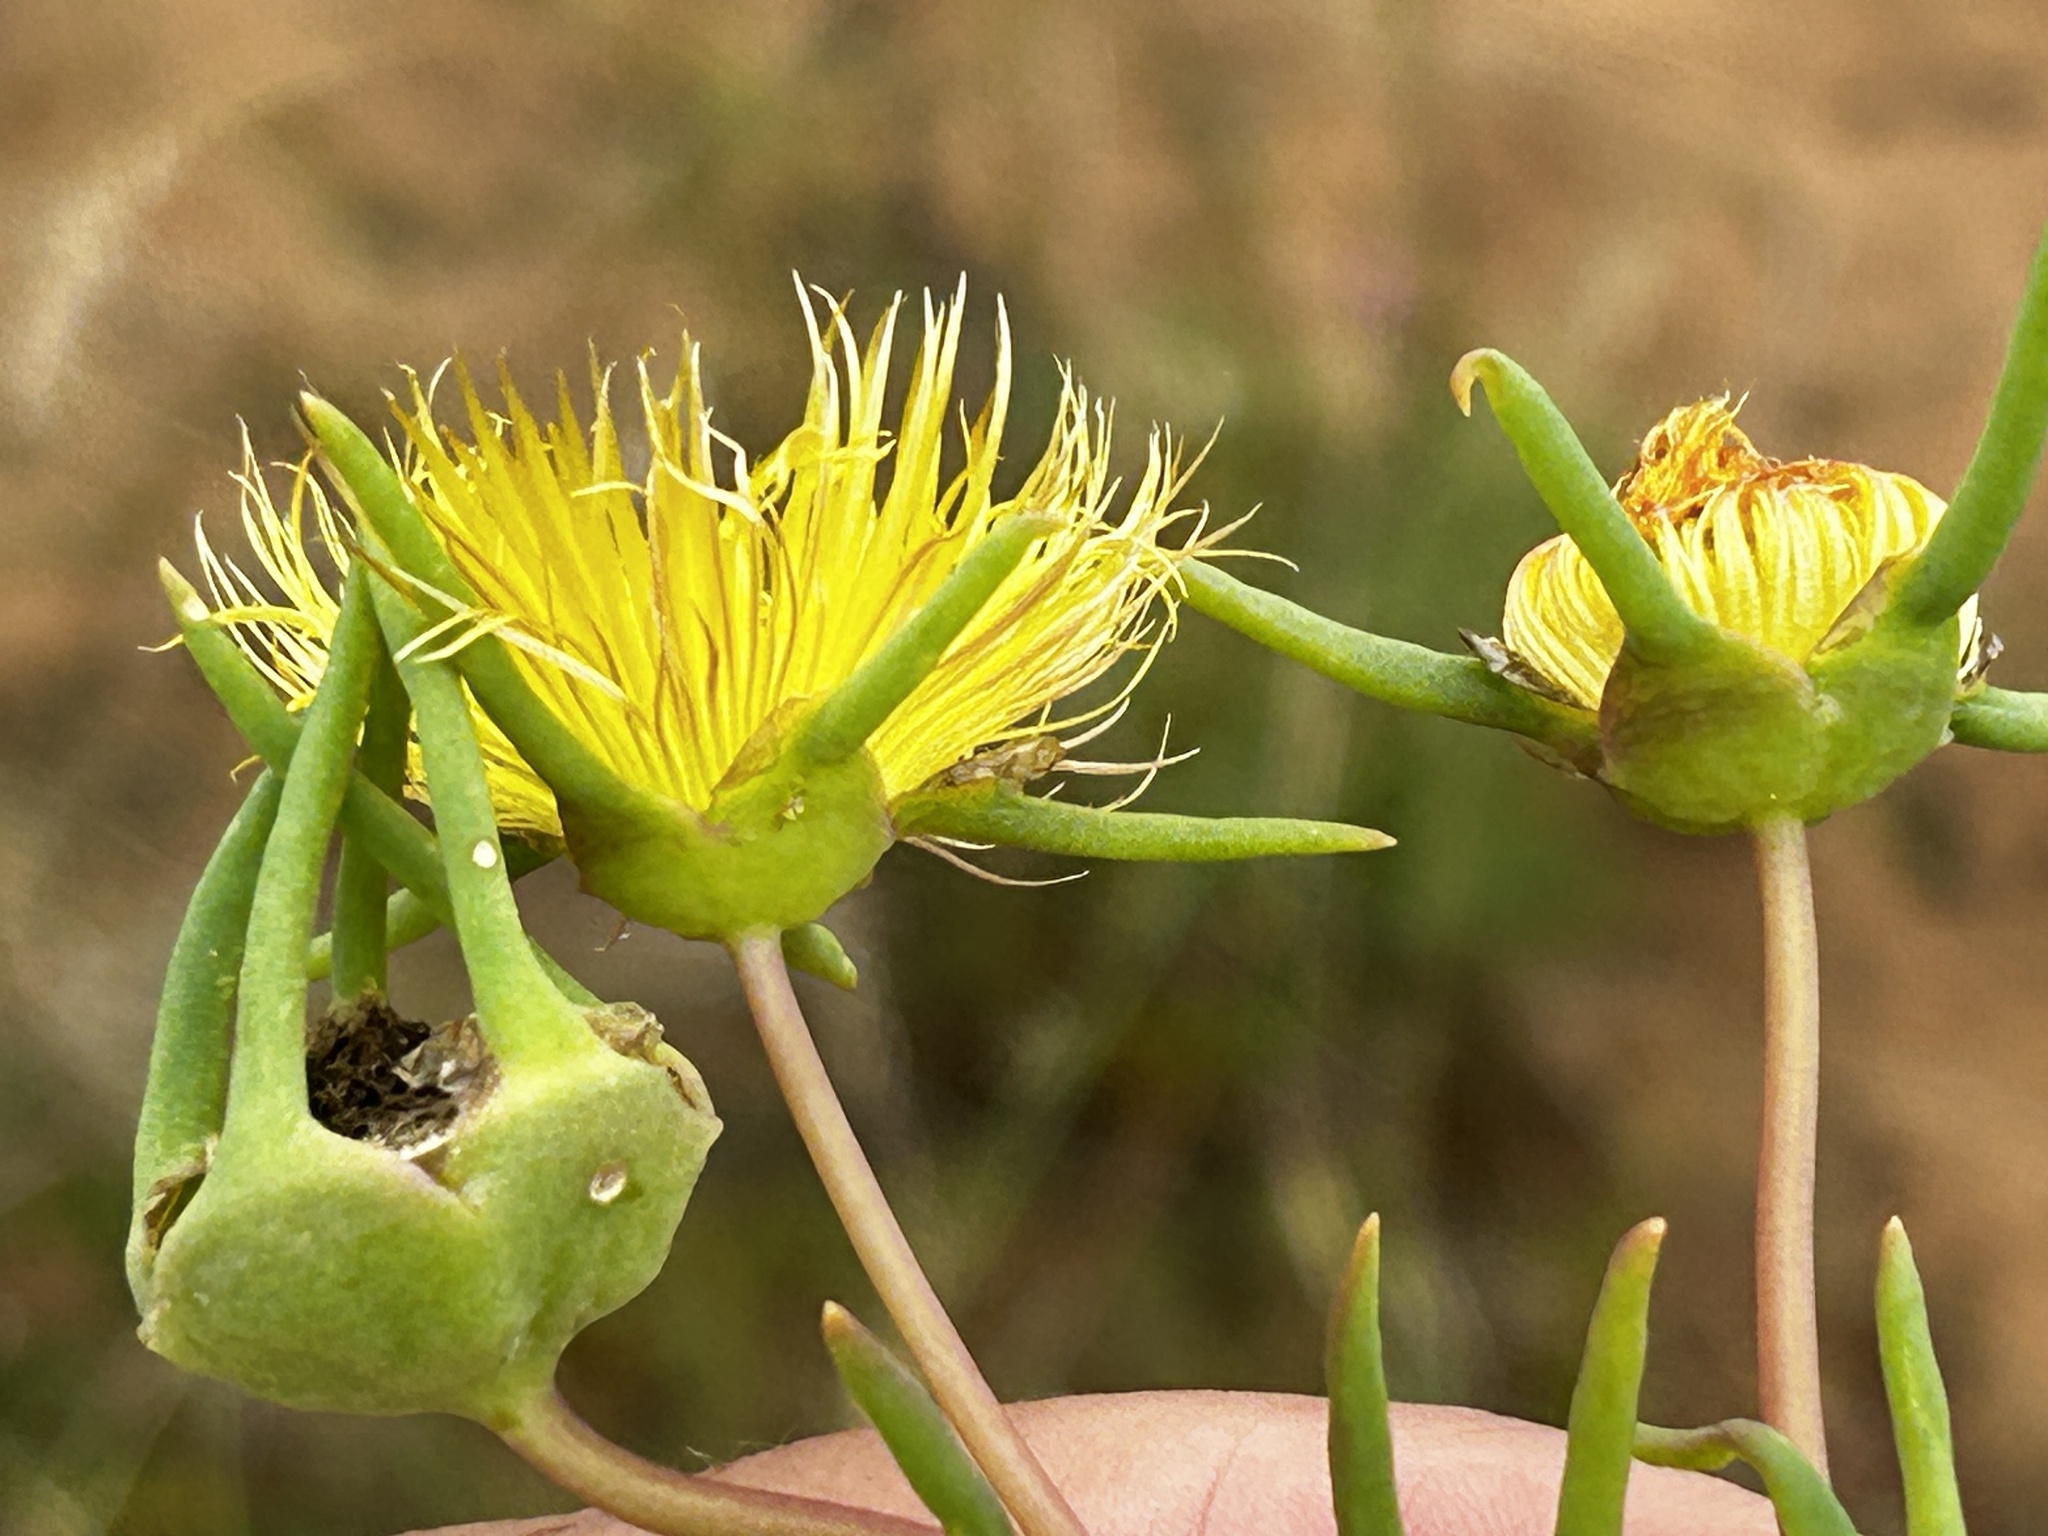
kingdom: Plantae
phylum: Tracheophyta
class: Magnoliopsida
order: Caryophyllales
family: Aizoaceae
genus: Conicosia
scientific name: Conicosia pugioniformis
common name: Narrow-leaved iceplant
